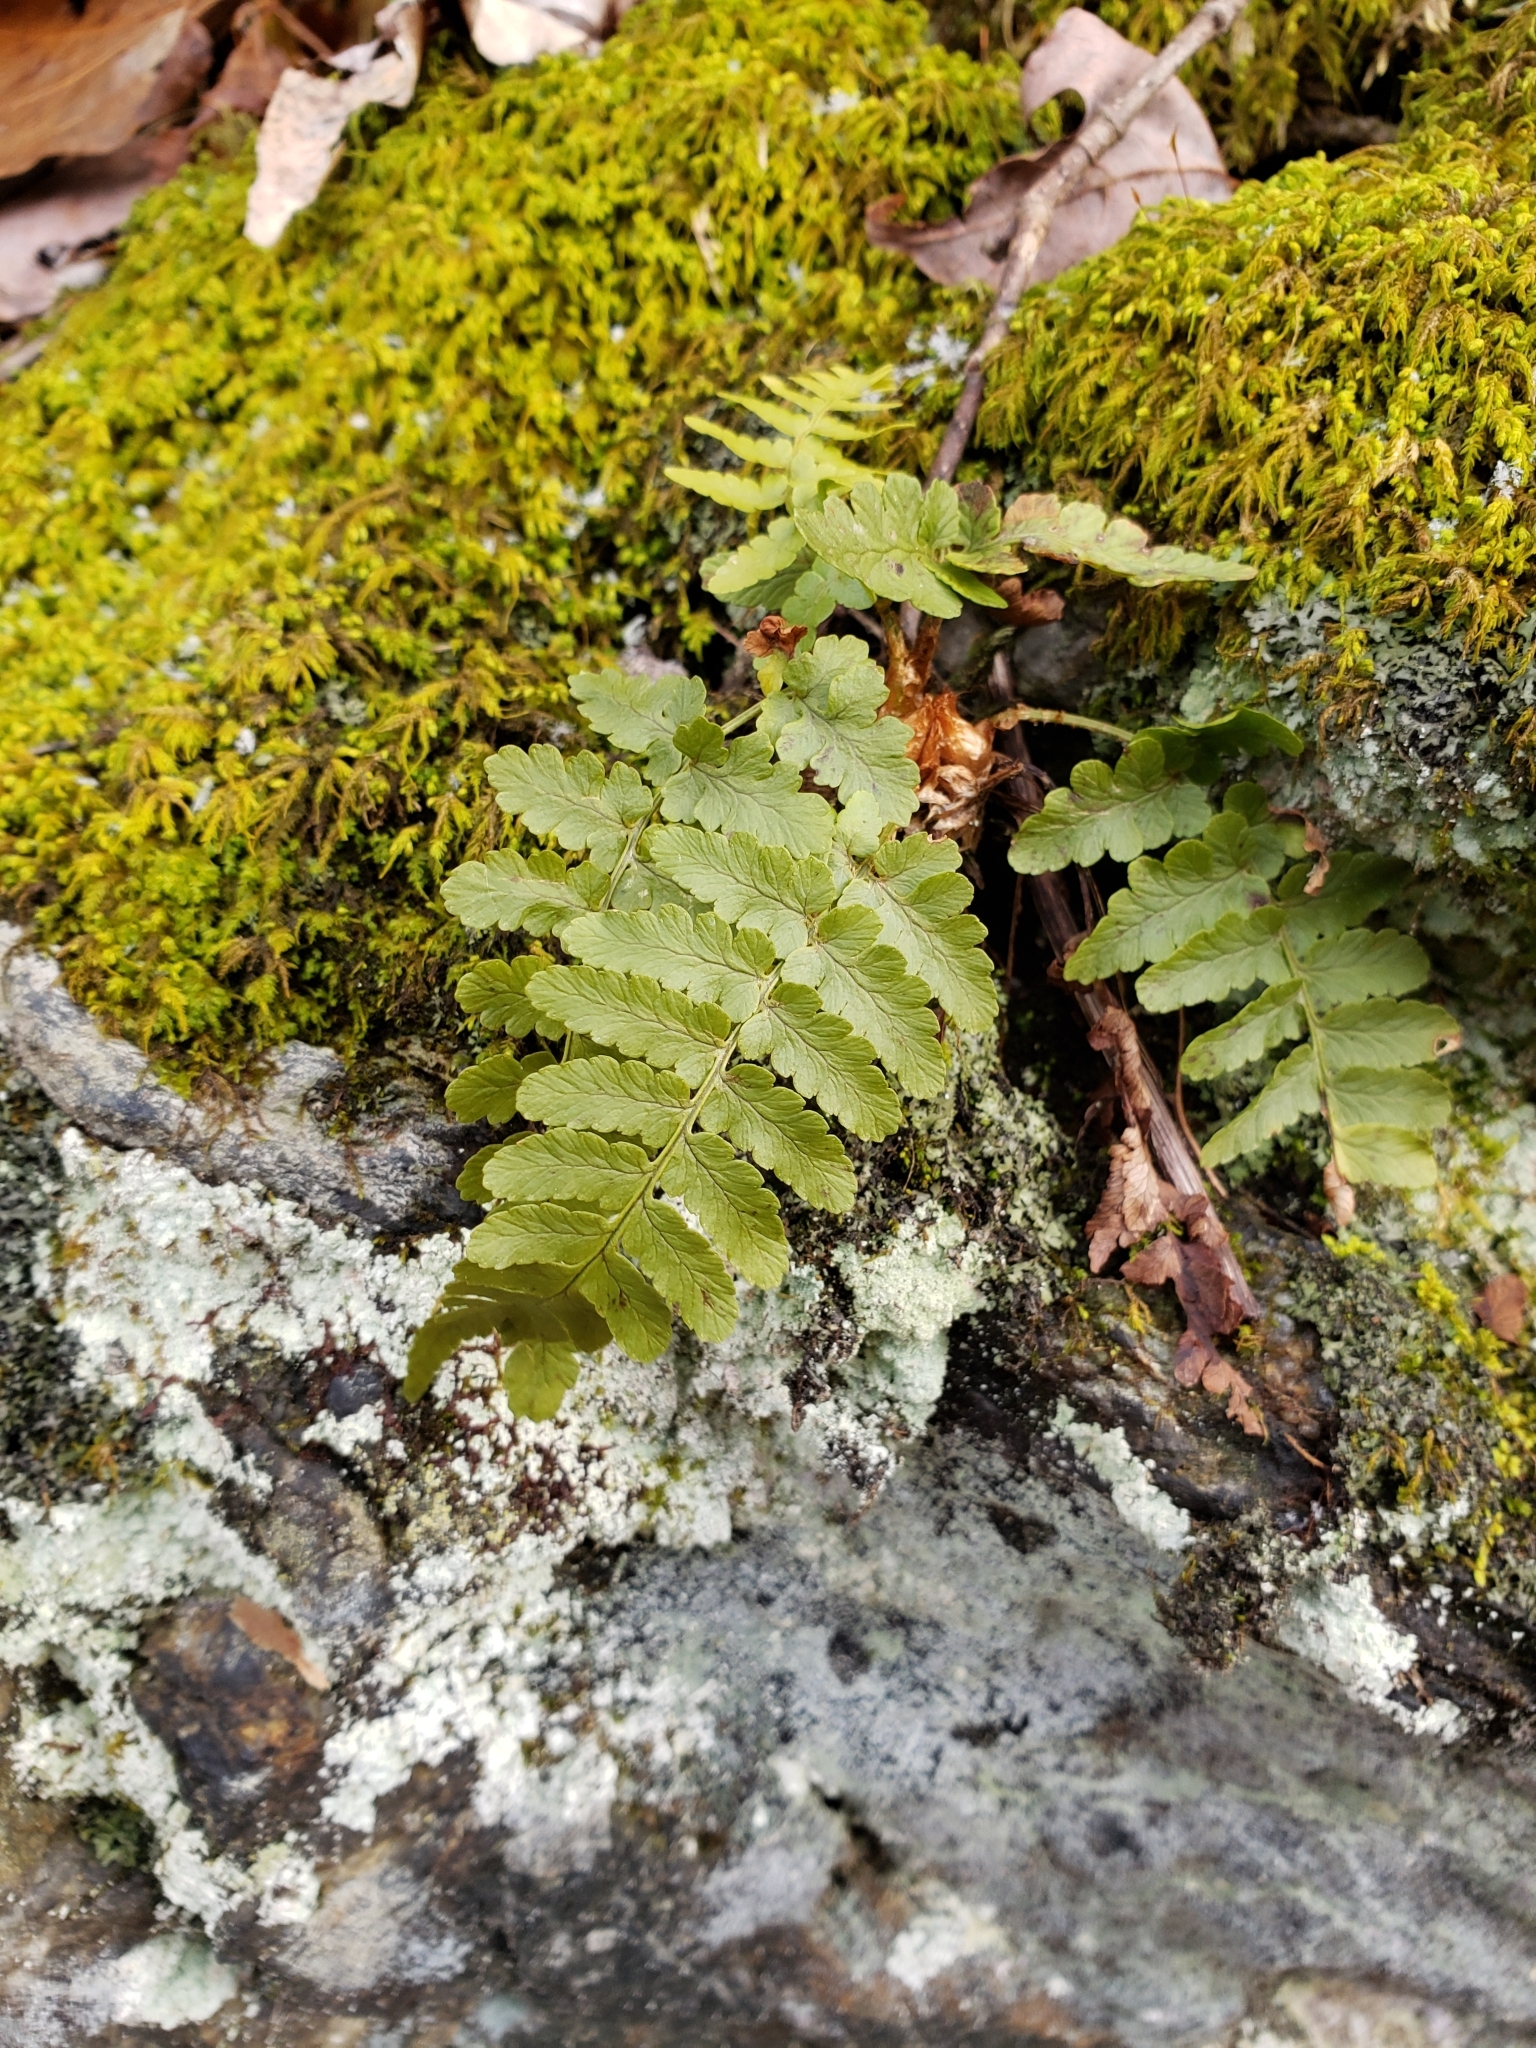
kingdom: Plantae
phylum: Tracheophyta
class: Polypodiopsida
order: Polypodiales
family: Dryopteridaceae
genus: Dryopteris
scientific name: Dryopteris marginalis
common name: Marginal wood fern
